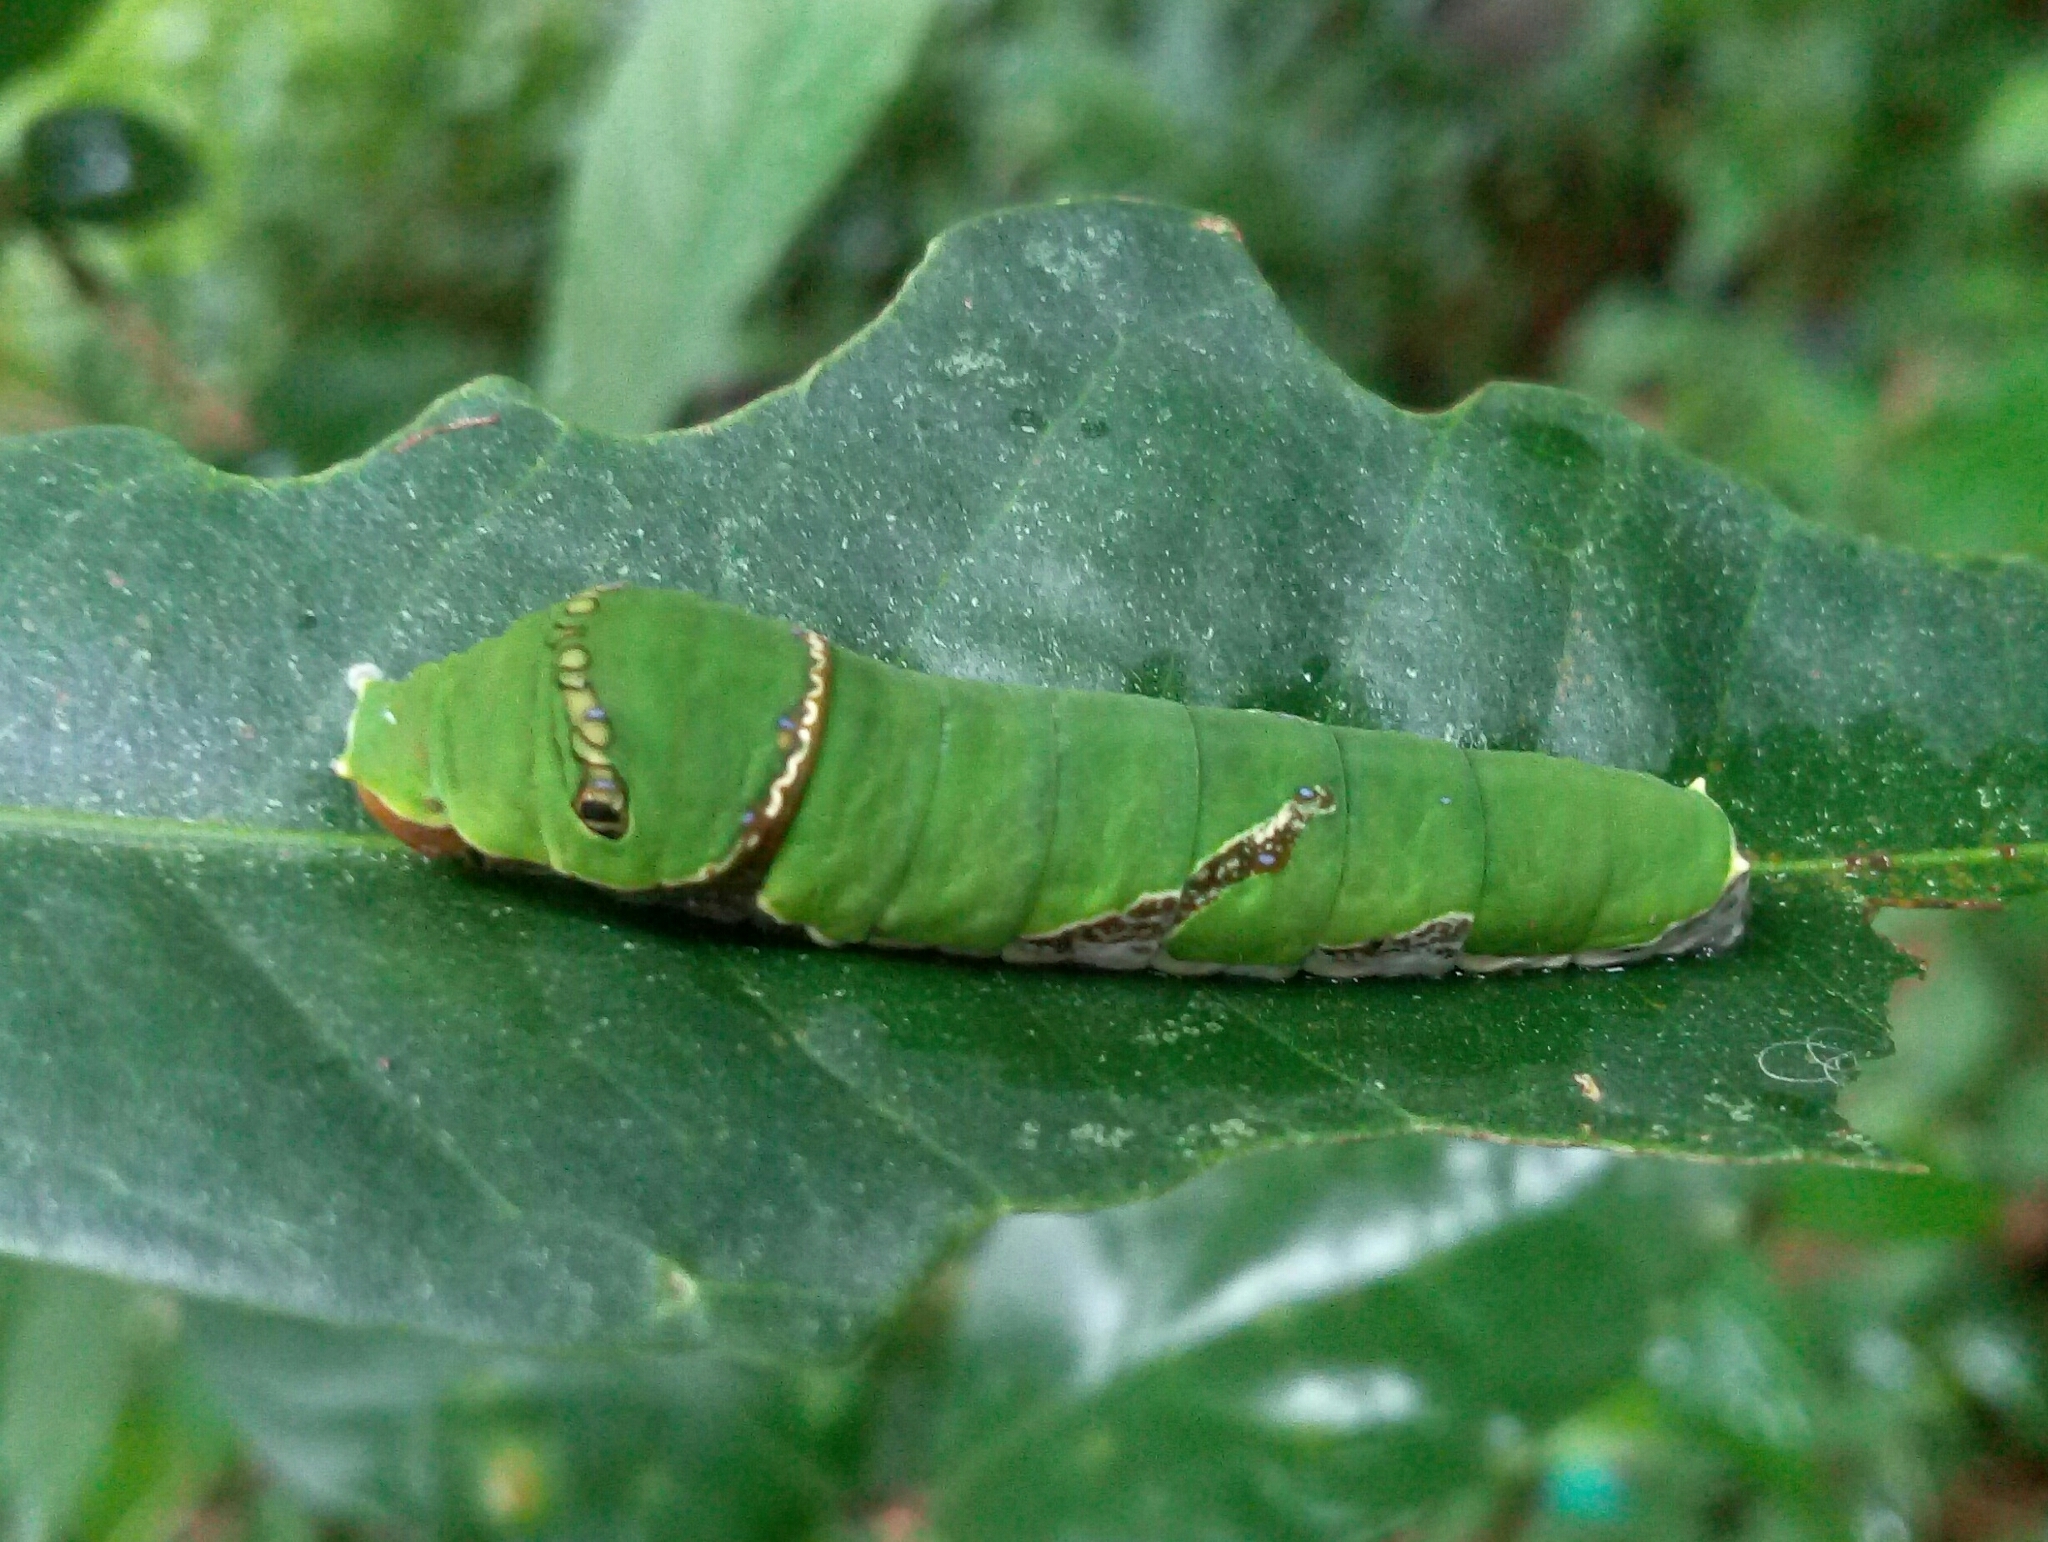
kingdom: Animalia
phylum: Arthropoda
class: Insecta
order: Lepidoptera
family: Papilionidae
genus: Papilio
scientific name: Papilio polytes
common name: Common mormon
